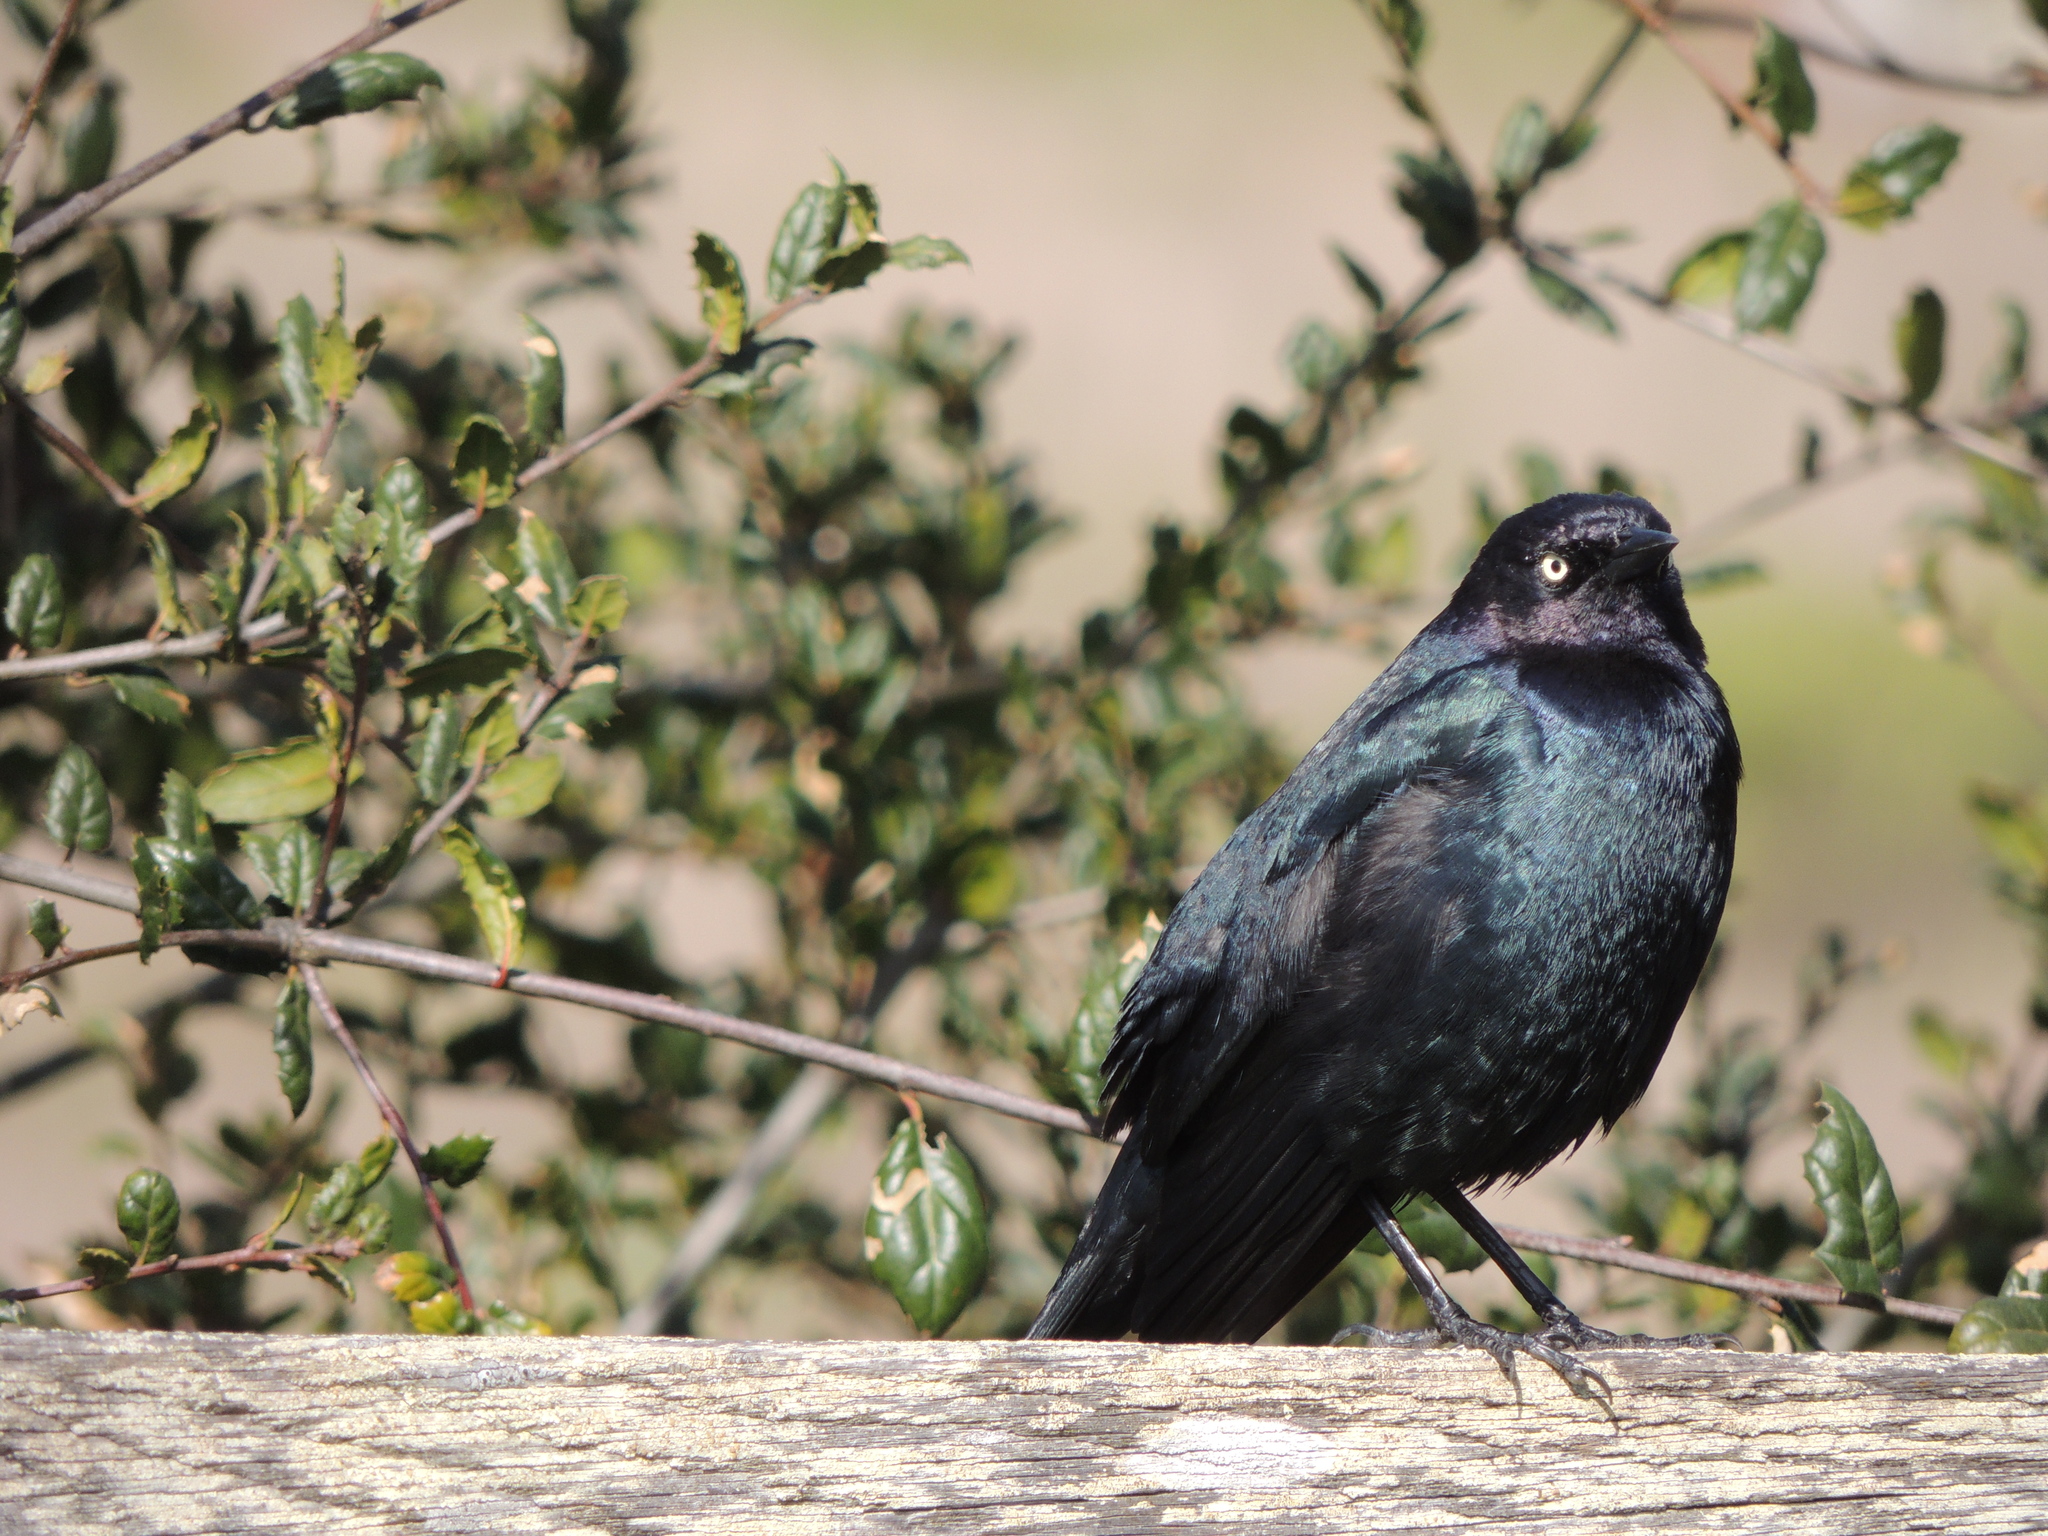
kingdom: Animalia
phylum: Chordata
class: Aves
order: Passeriformes
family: Icteridae
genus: Euphagus
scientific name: Euphagus cyanocephalus
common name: Brewer's blackbird
